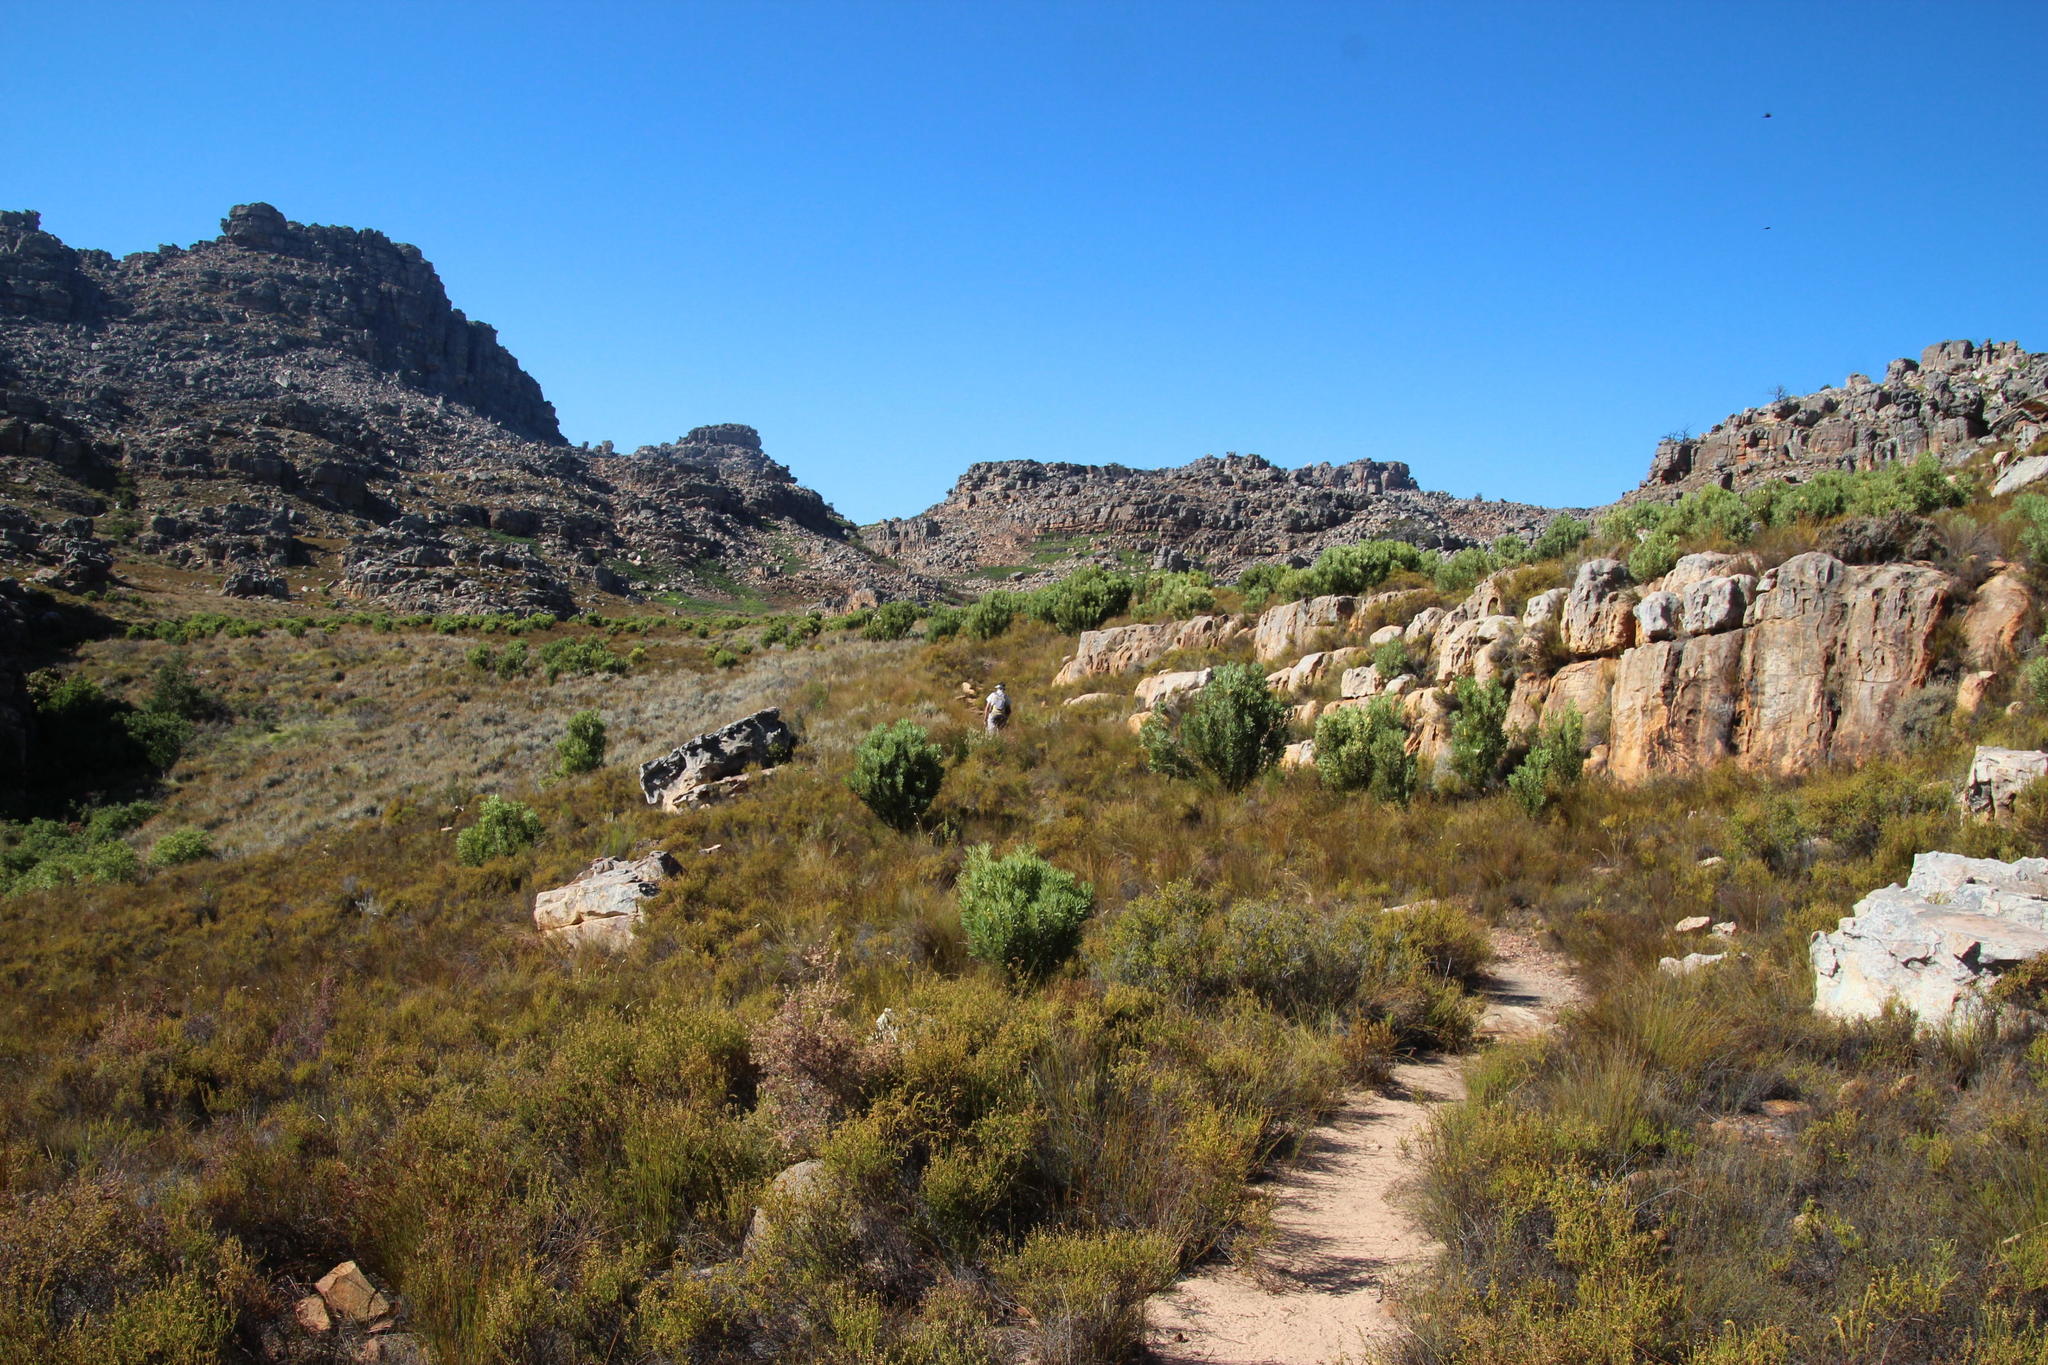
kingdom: Plantae
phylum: Tracheophyta
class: Magnoliopsida
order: Proteales
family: Proteaceae
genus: Protea
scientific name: Protea repens
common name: Sugarbush
